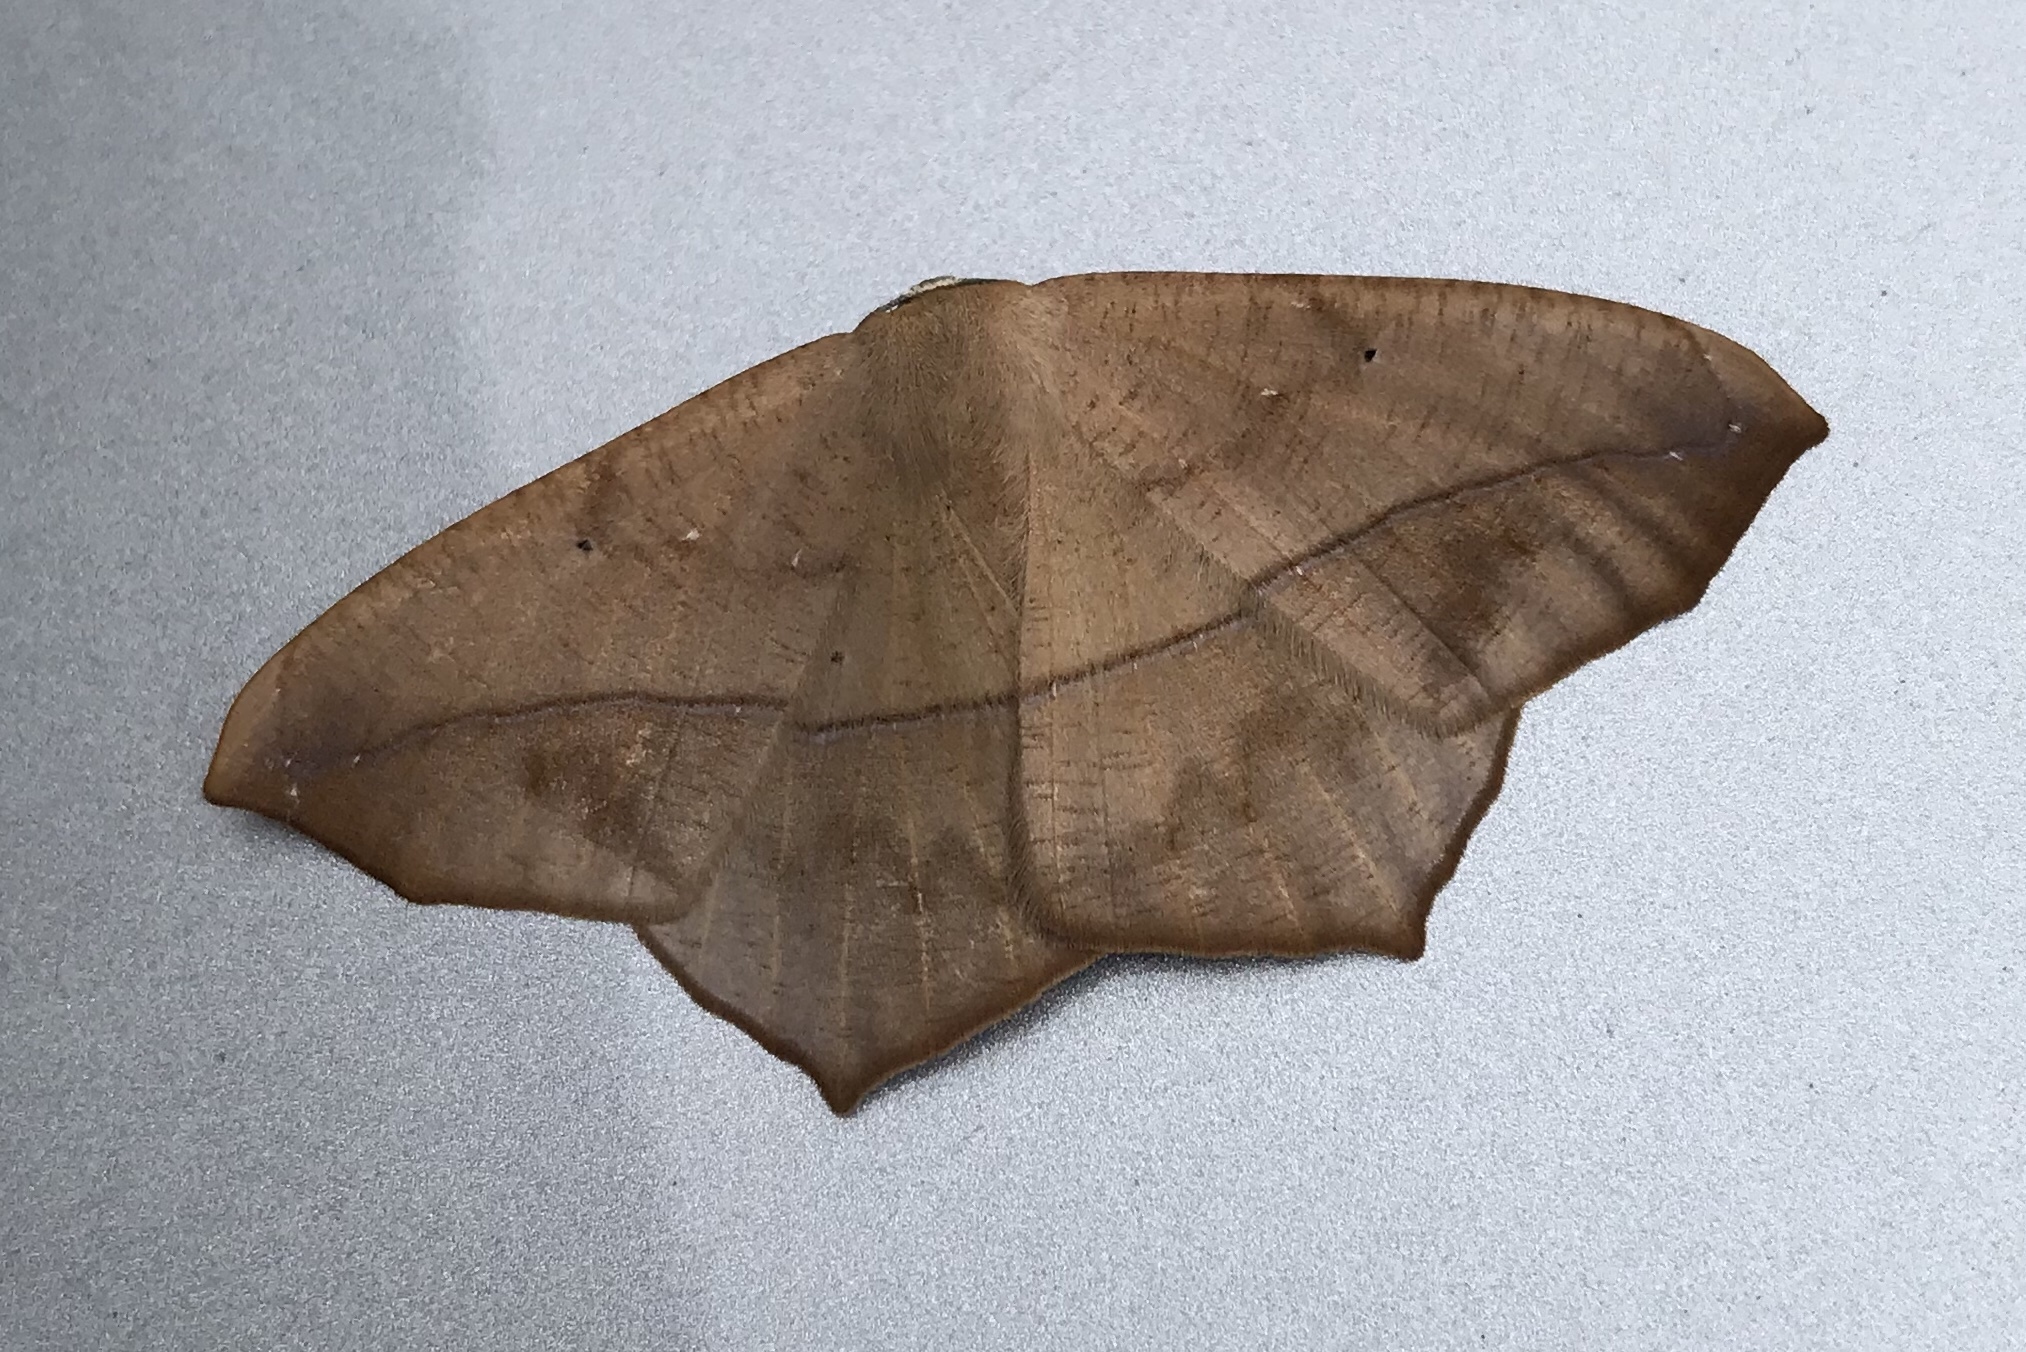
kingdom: Animalia
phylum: Arthropoda
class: Insecta
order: Lepidoptera
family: Geometridae
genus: Prochoerodes
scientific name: Prochoerodes lineola
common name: Large maple spanworm
